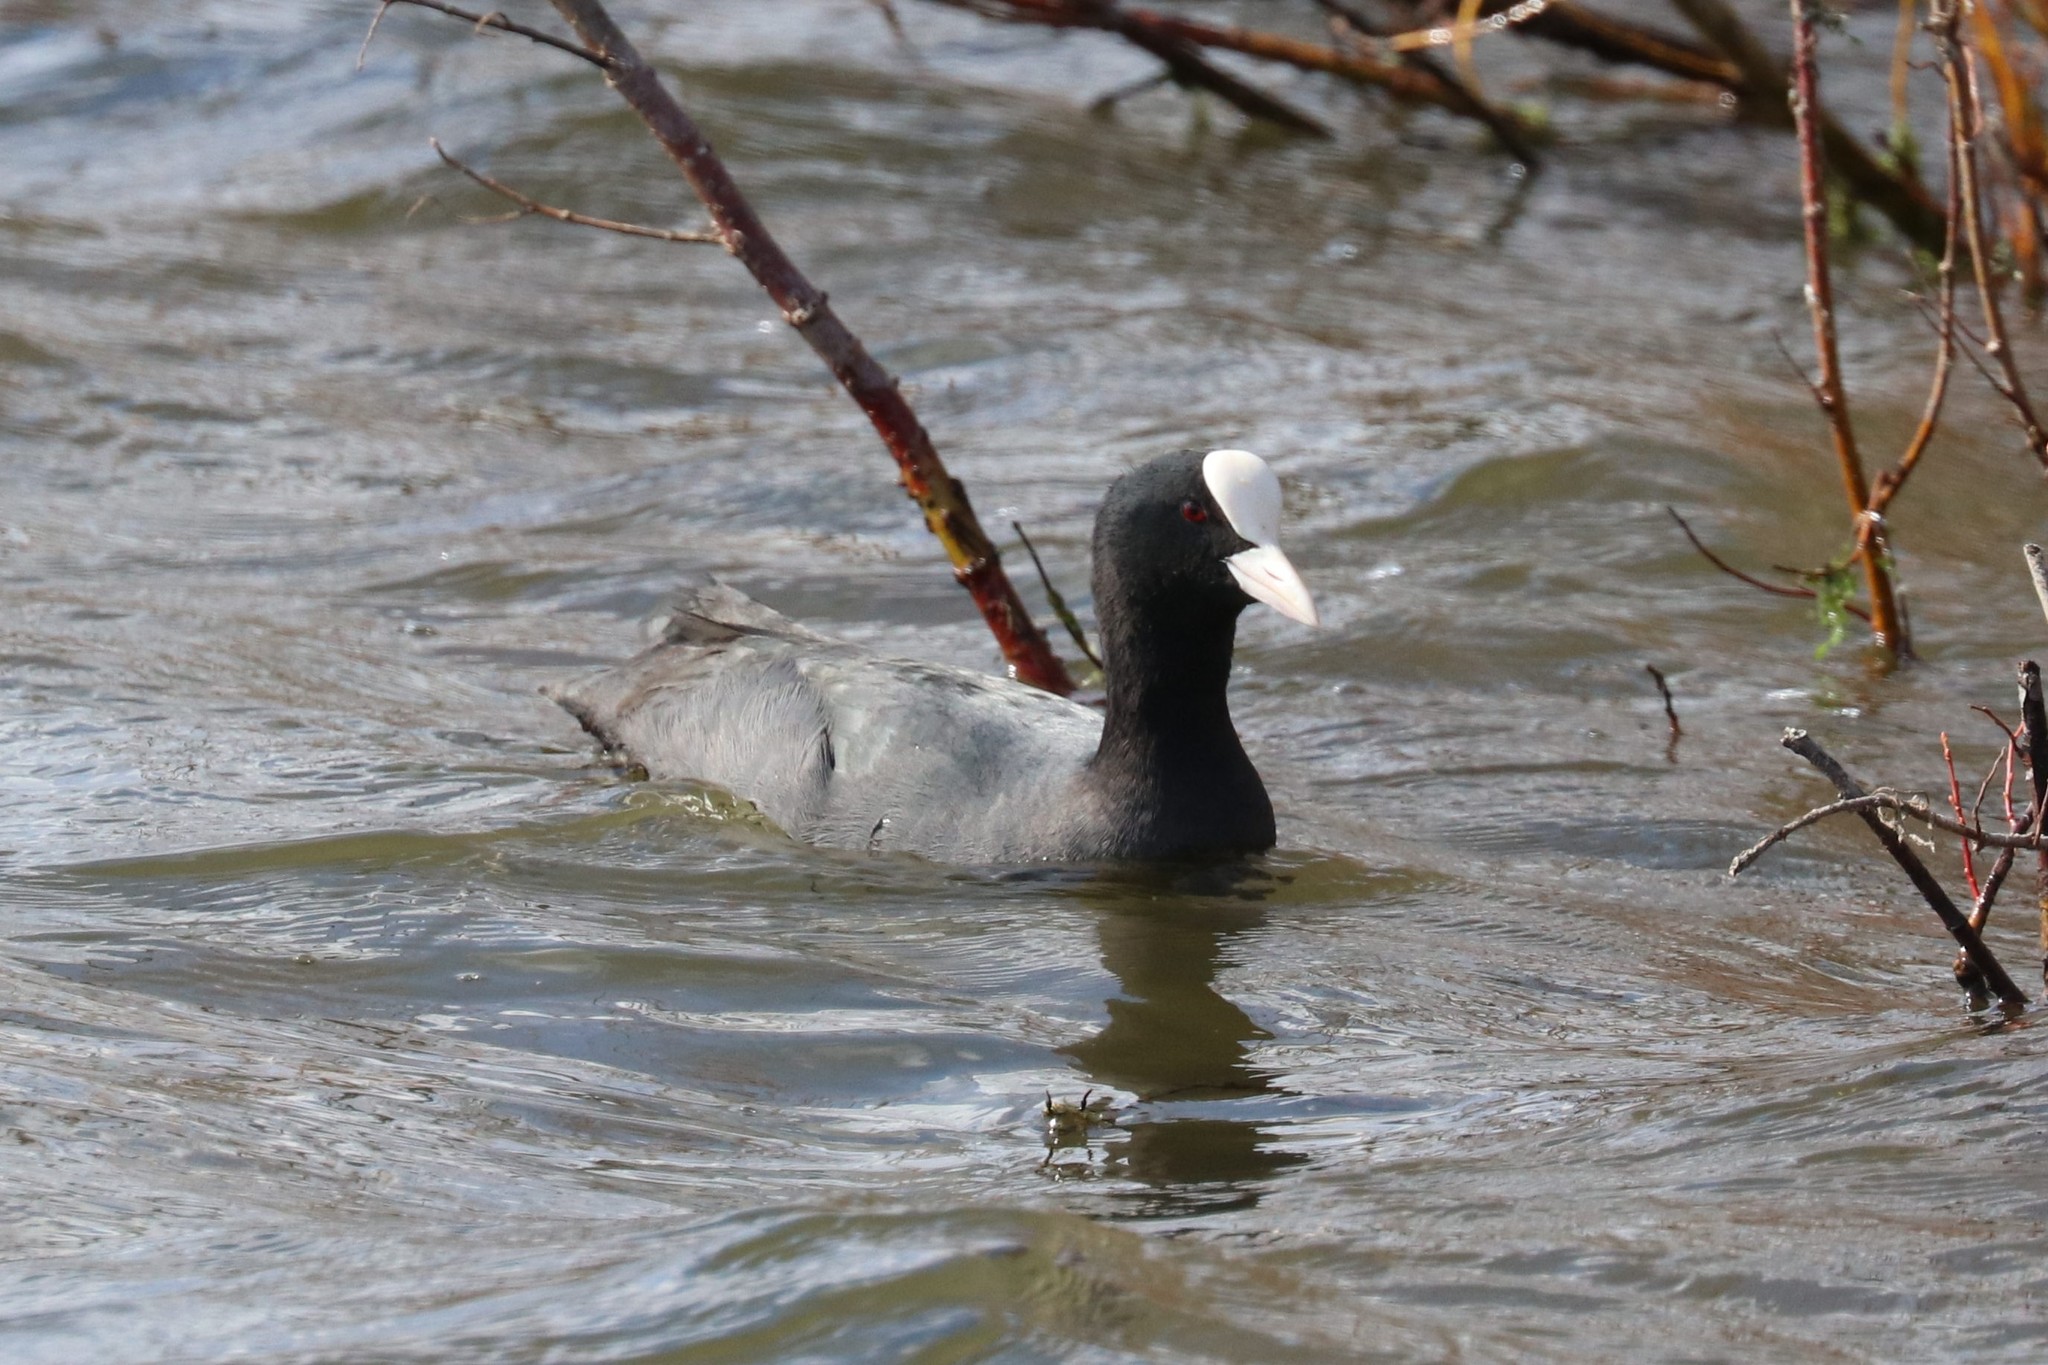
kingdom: Animalia
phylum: Chordata
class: Aves
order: Gruiformes
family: Rallidae
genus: Fulica
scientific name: Fulica atra
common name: Eurasian coot
